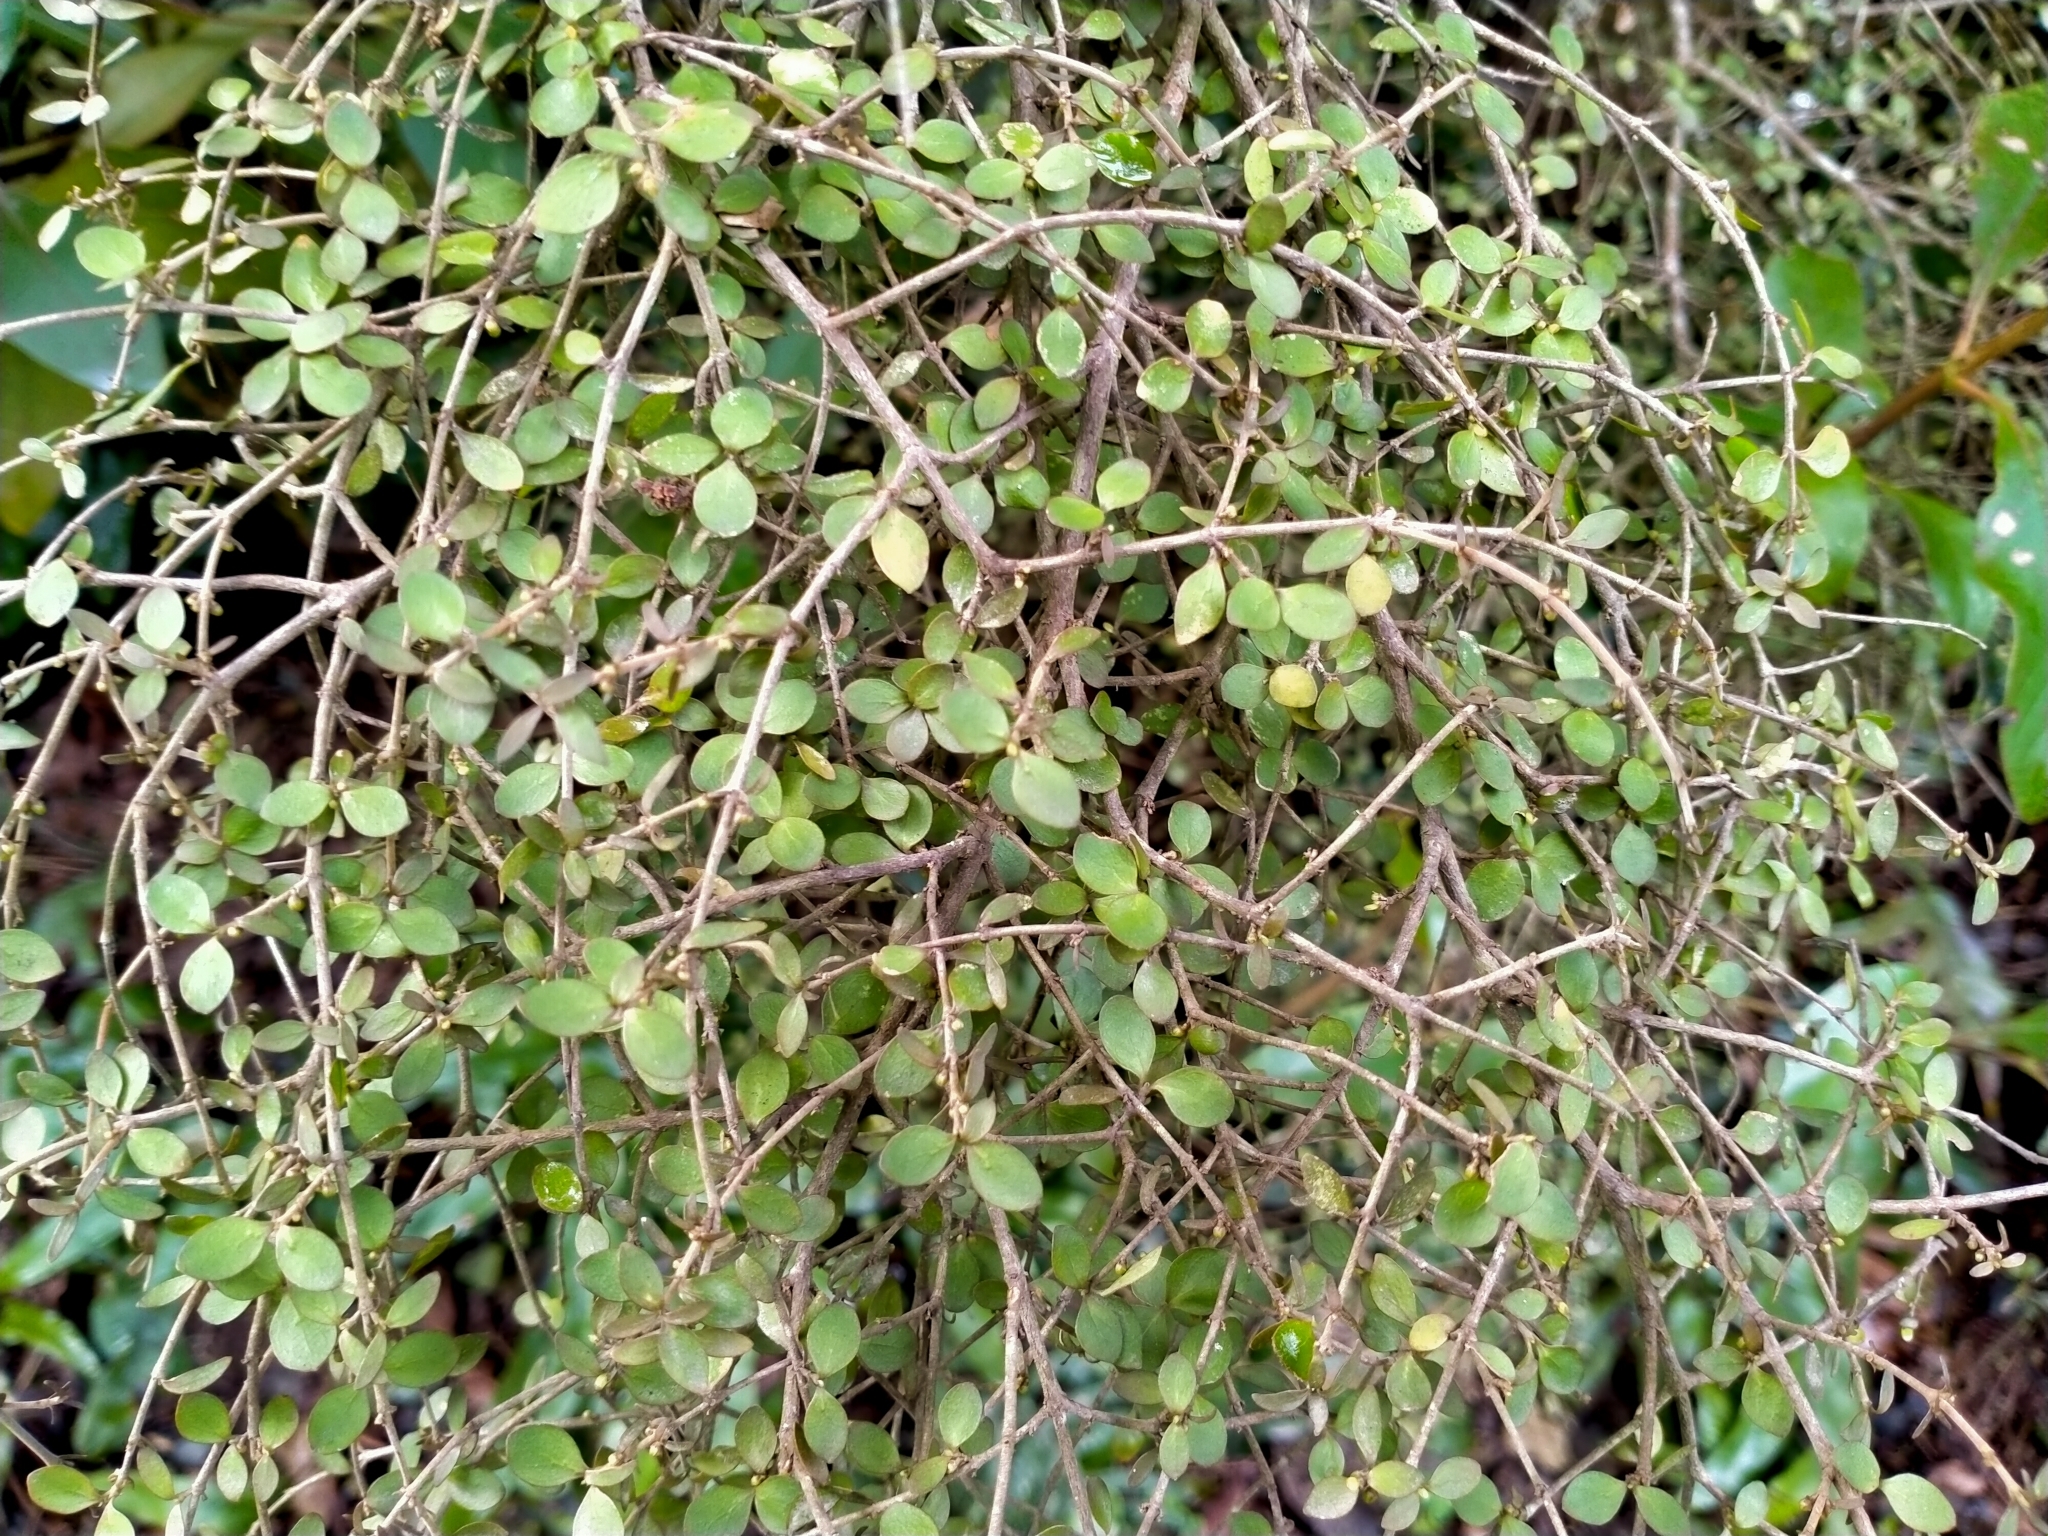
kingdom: Plantae
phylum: Tracheophyta
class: Magnoliopsida
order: Gentianales
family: Rubiaceae
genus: Coprosma
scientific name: Coprosma rhamnoides
